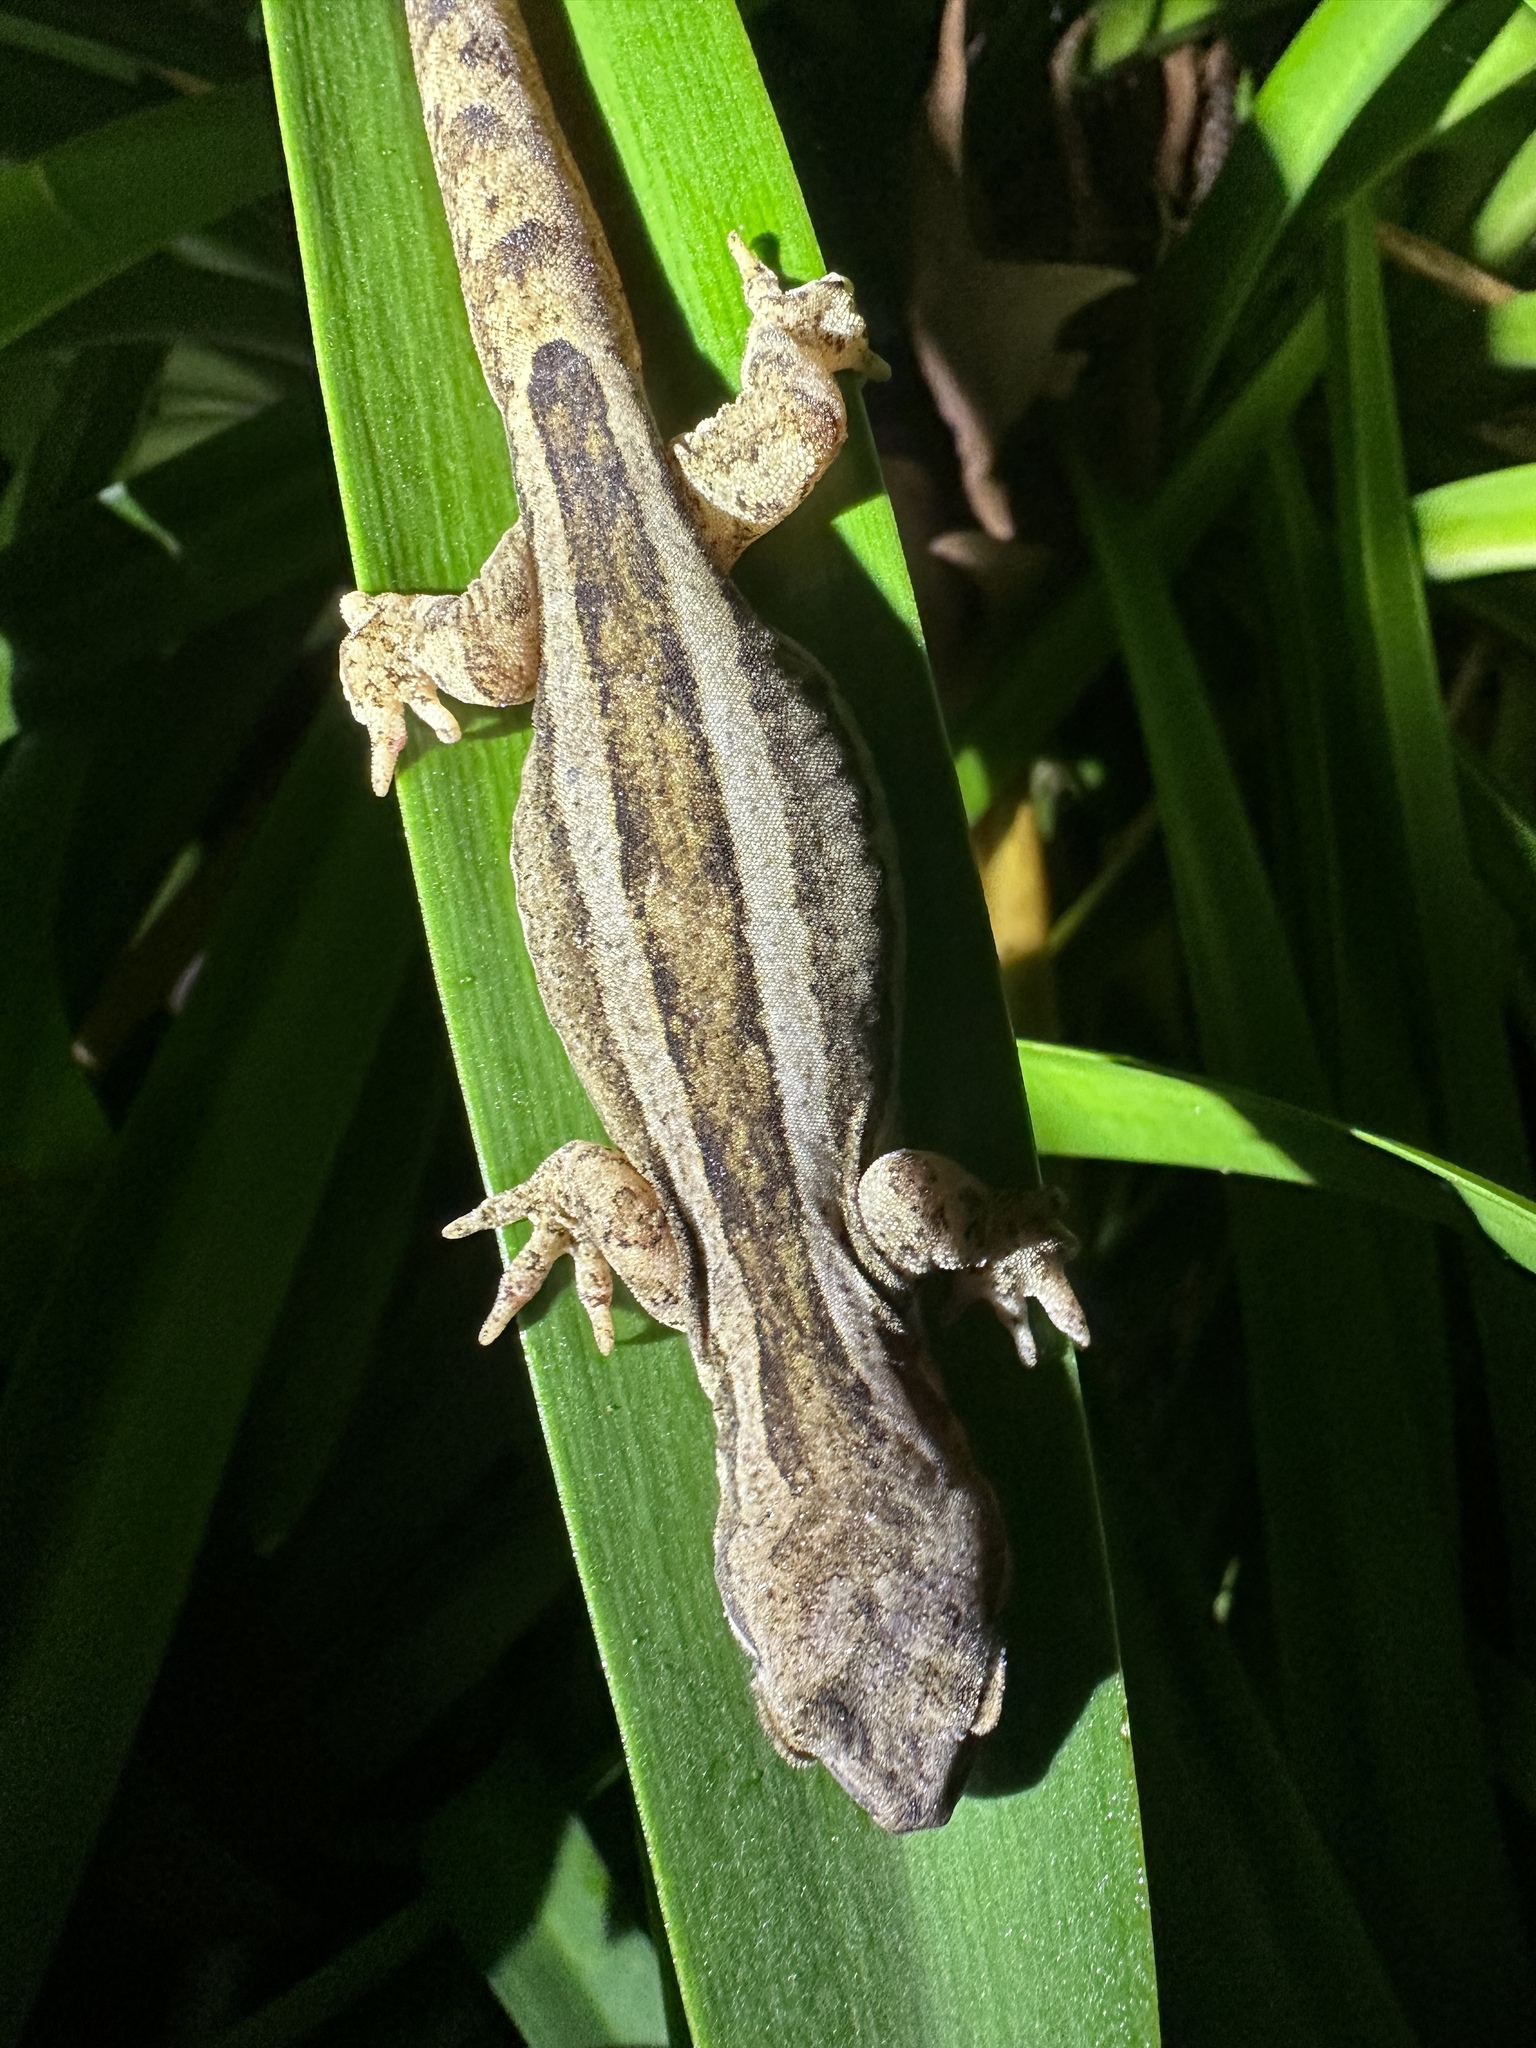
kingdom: Animalia
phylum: Chordata
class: Squamata
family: Diplodactylidae
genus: Dactylocnemis
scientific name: Dactylocnemis pacificus
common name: Pacific gecko
